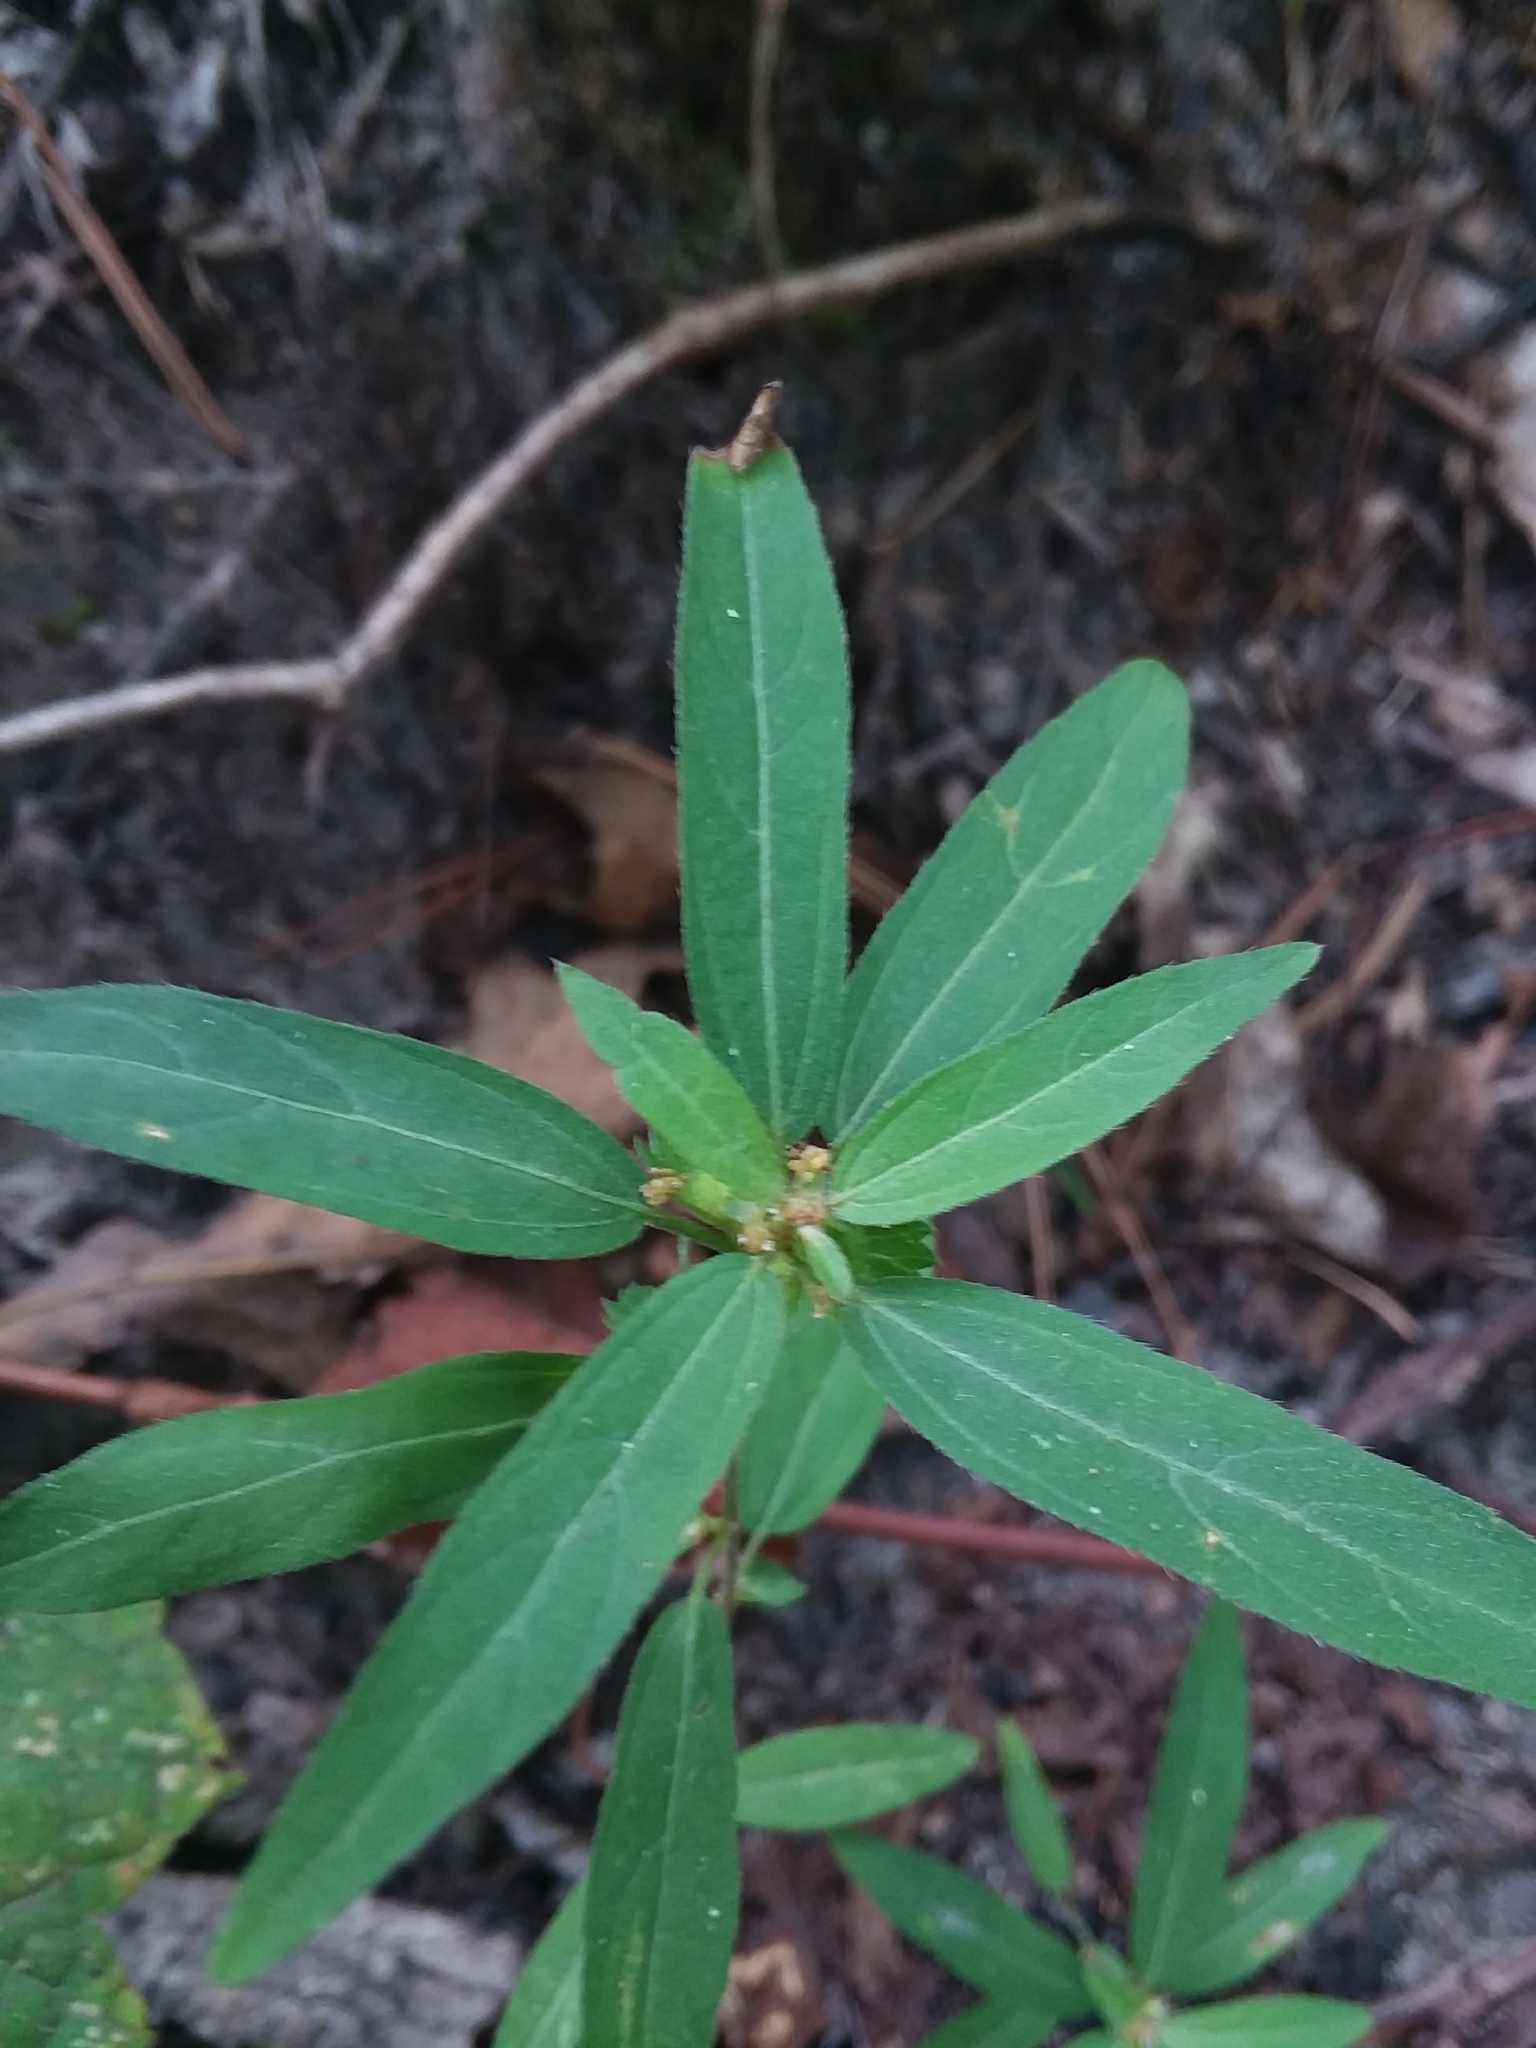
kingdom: Plantae
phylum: Tracheophyta
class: Magnoliopsida
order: Malpighiales
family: Euphorbiaceae
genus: Acalypha
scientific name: Acalypha gracilens
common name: Slender three-seeded mercury
